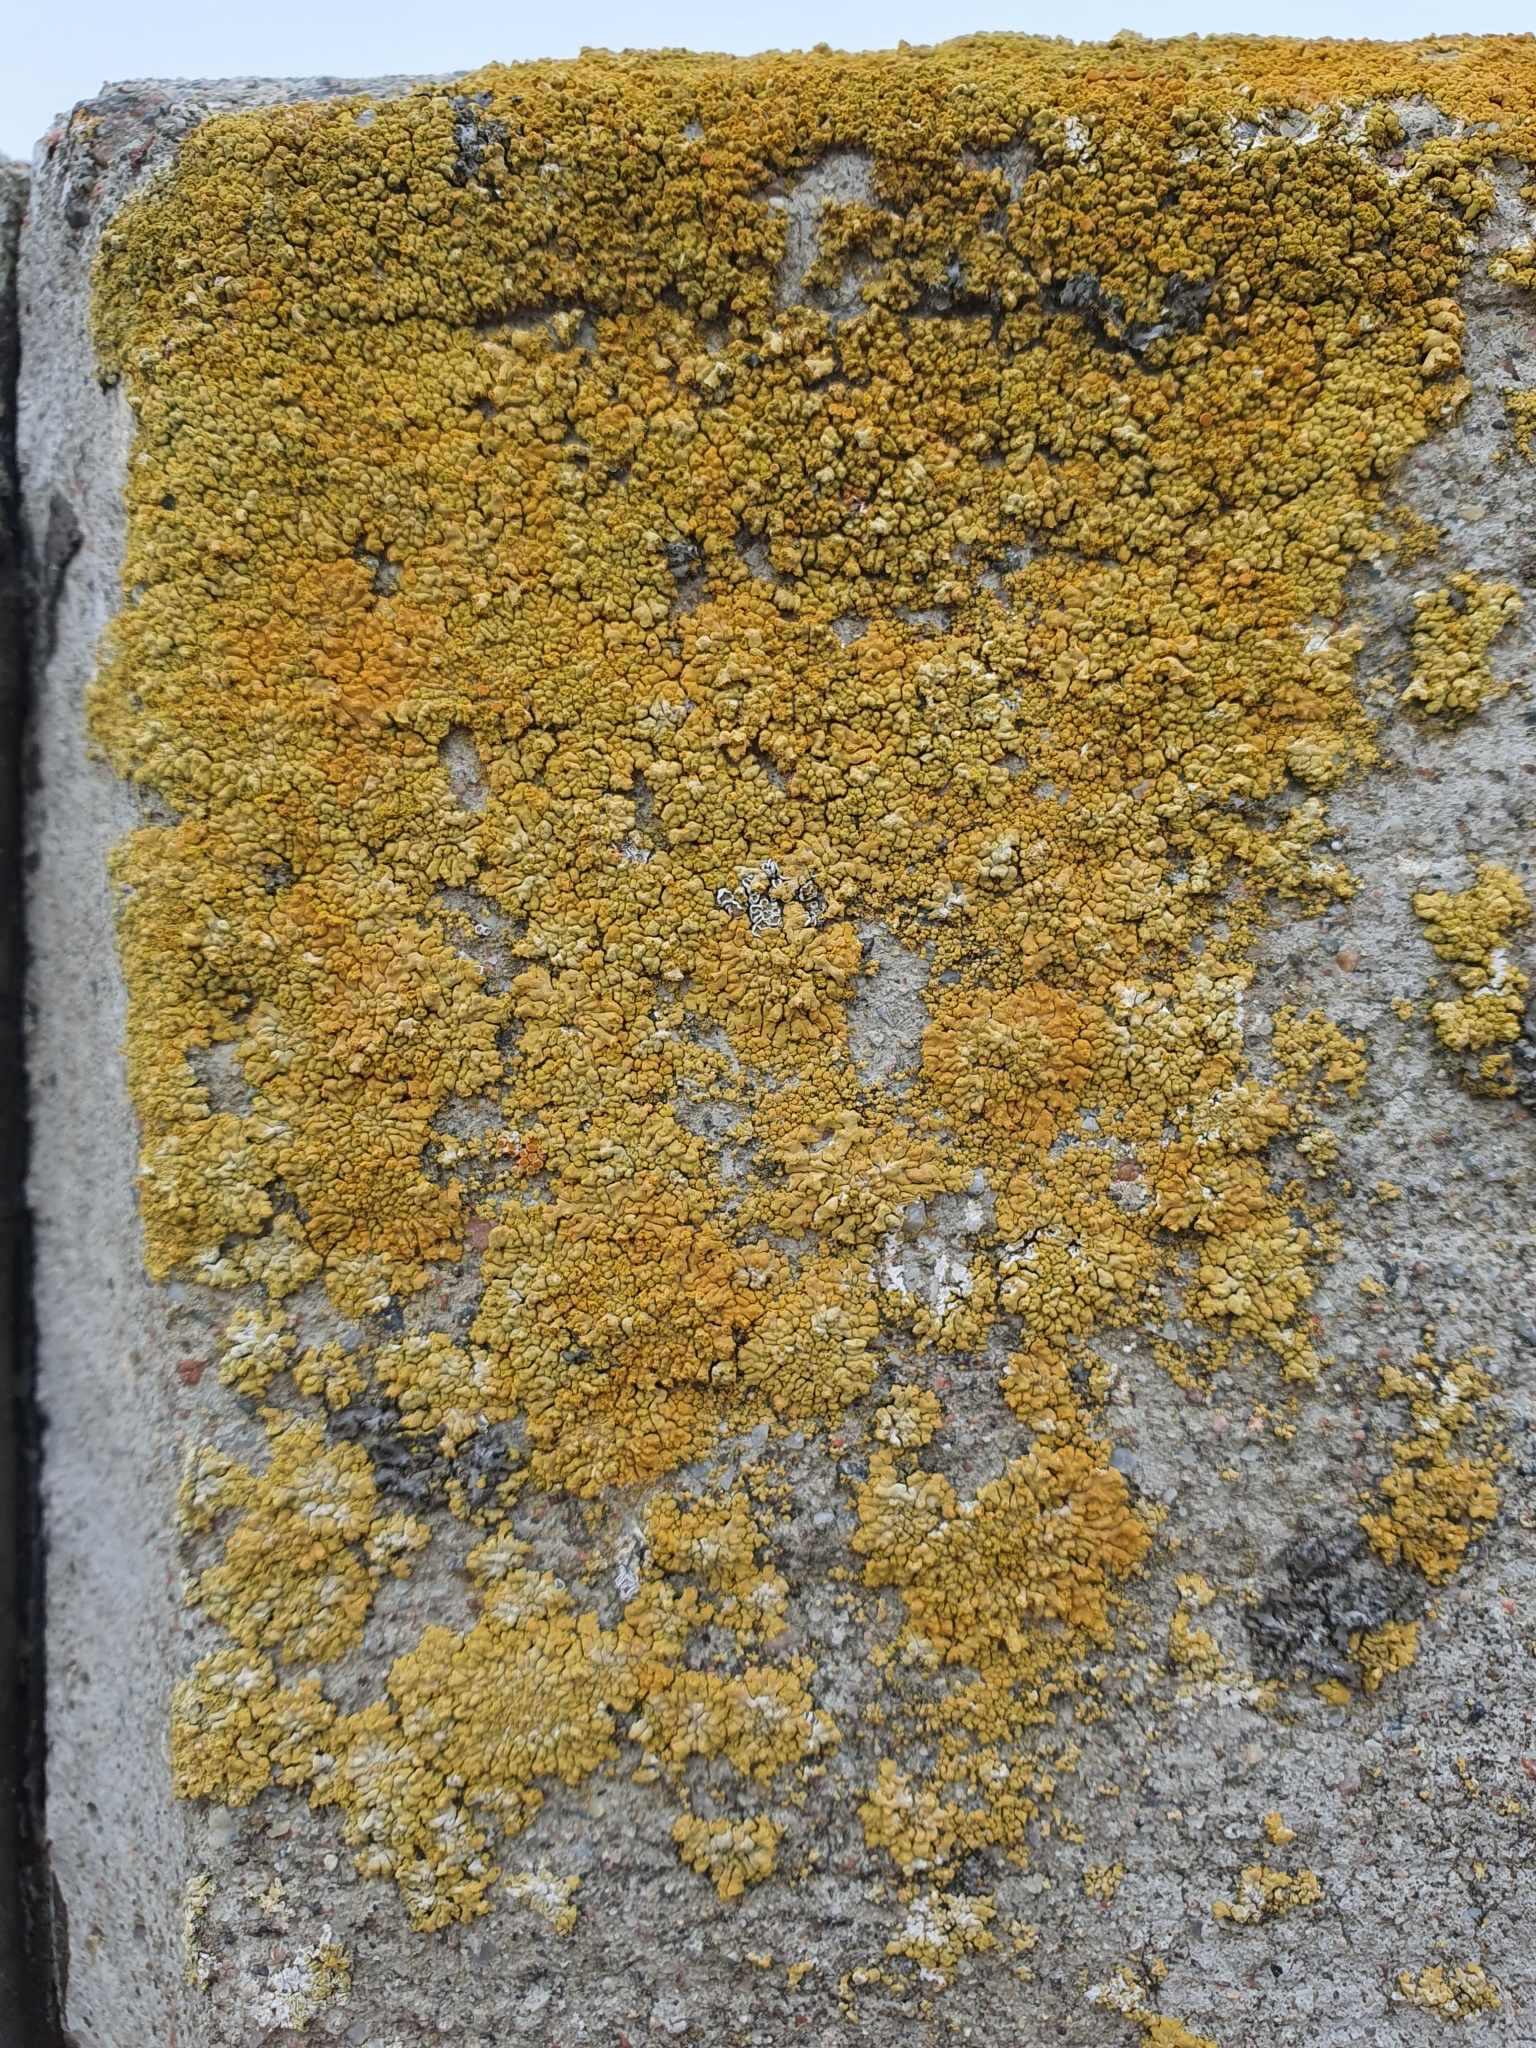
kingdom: Fungi
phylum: Ascomycota
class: Lecanoromycetes
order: Teloschistales
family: Teloschistaceae
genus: Calogaya
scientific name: Calogaya decipiens
